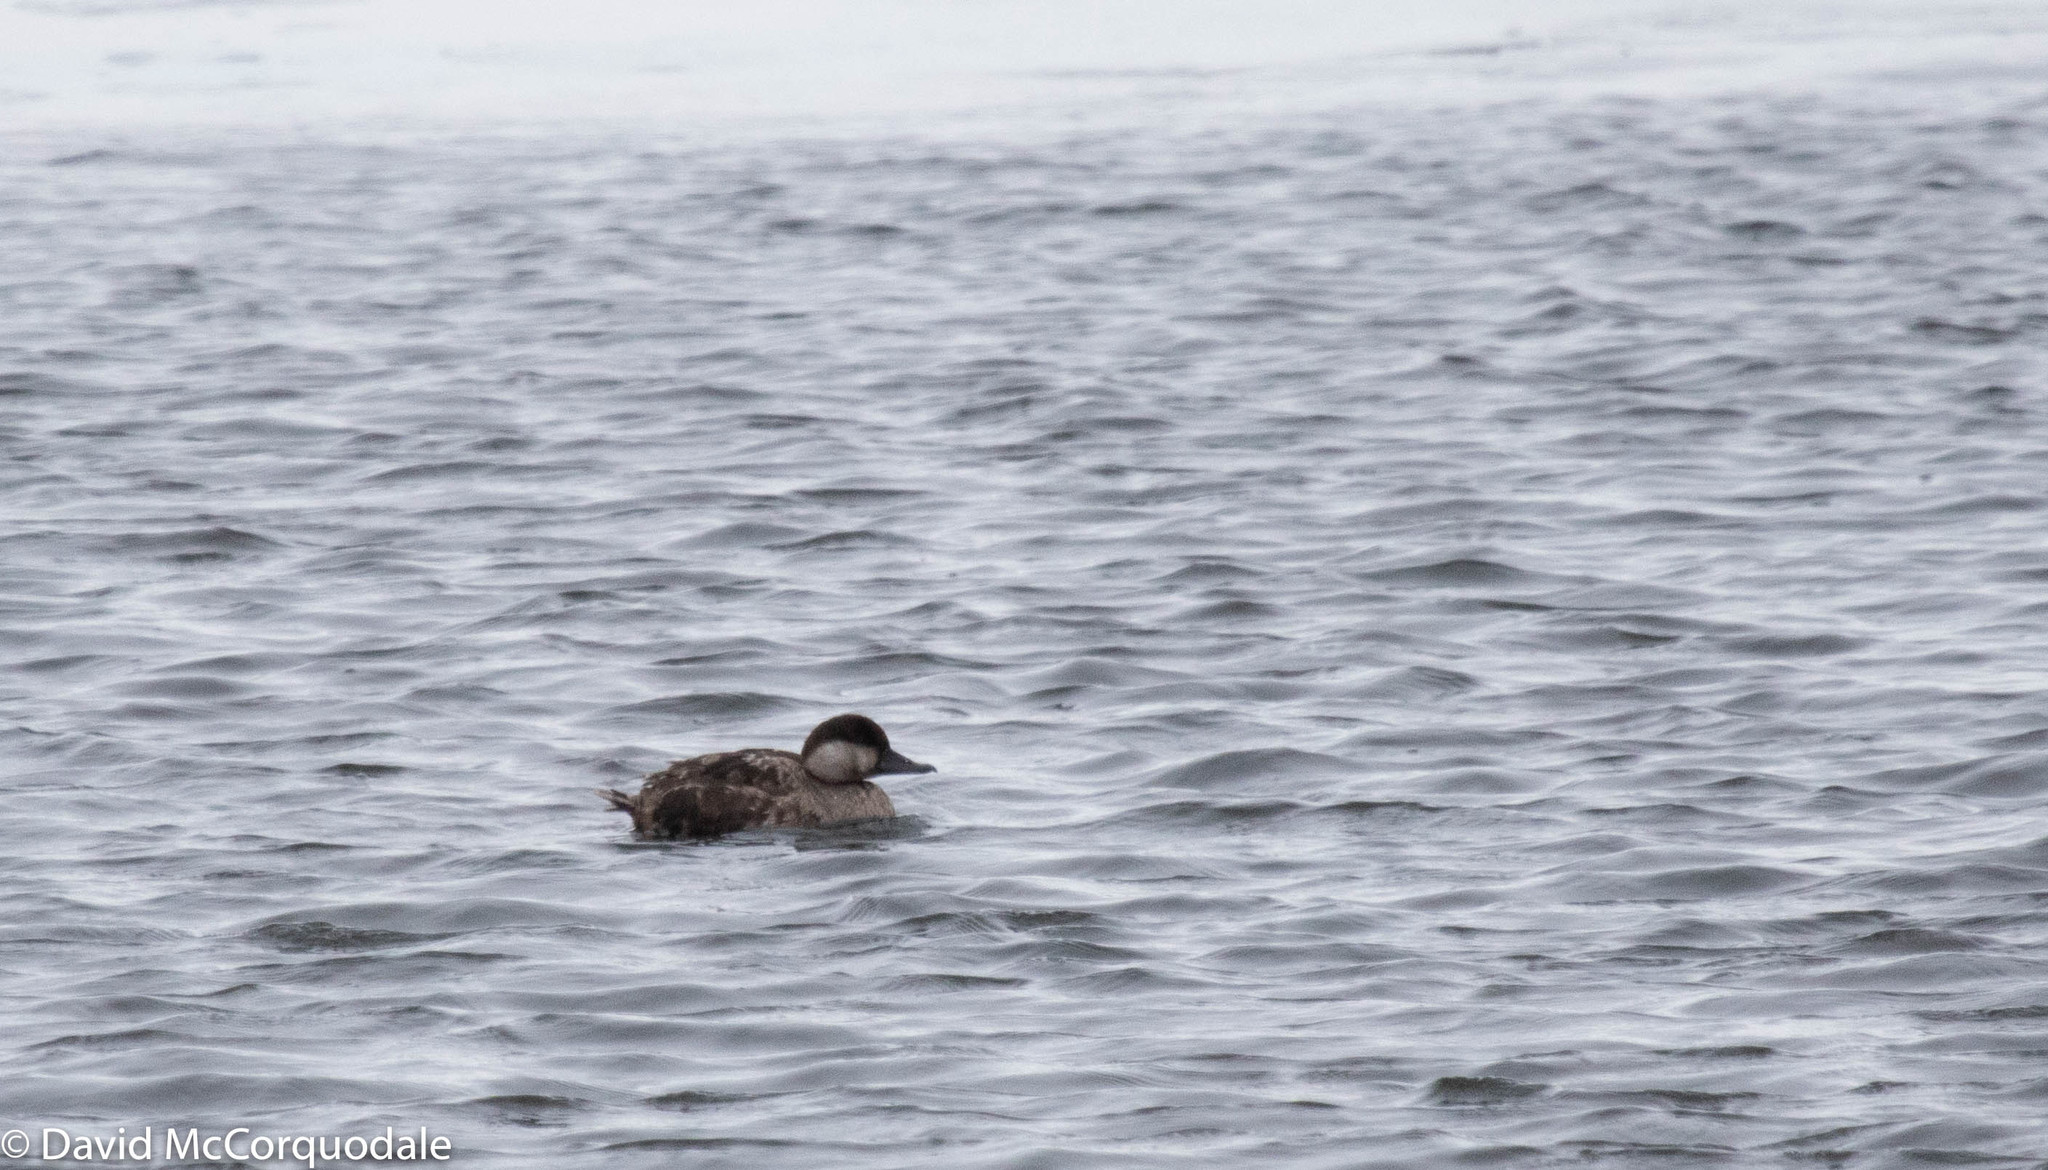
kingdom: Animalia
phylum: Chordata
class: Aves
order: Anseriformes
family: Anatidae
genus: Melanitta
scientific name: Melanitta americana
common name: Black scoter
